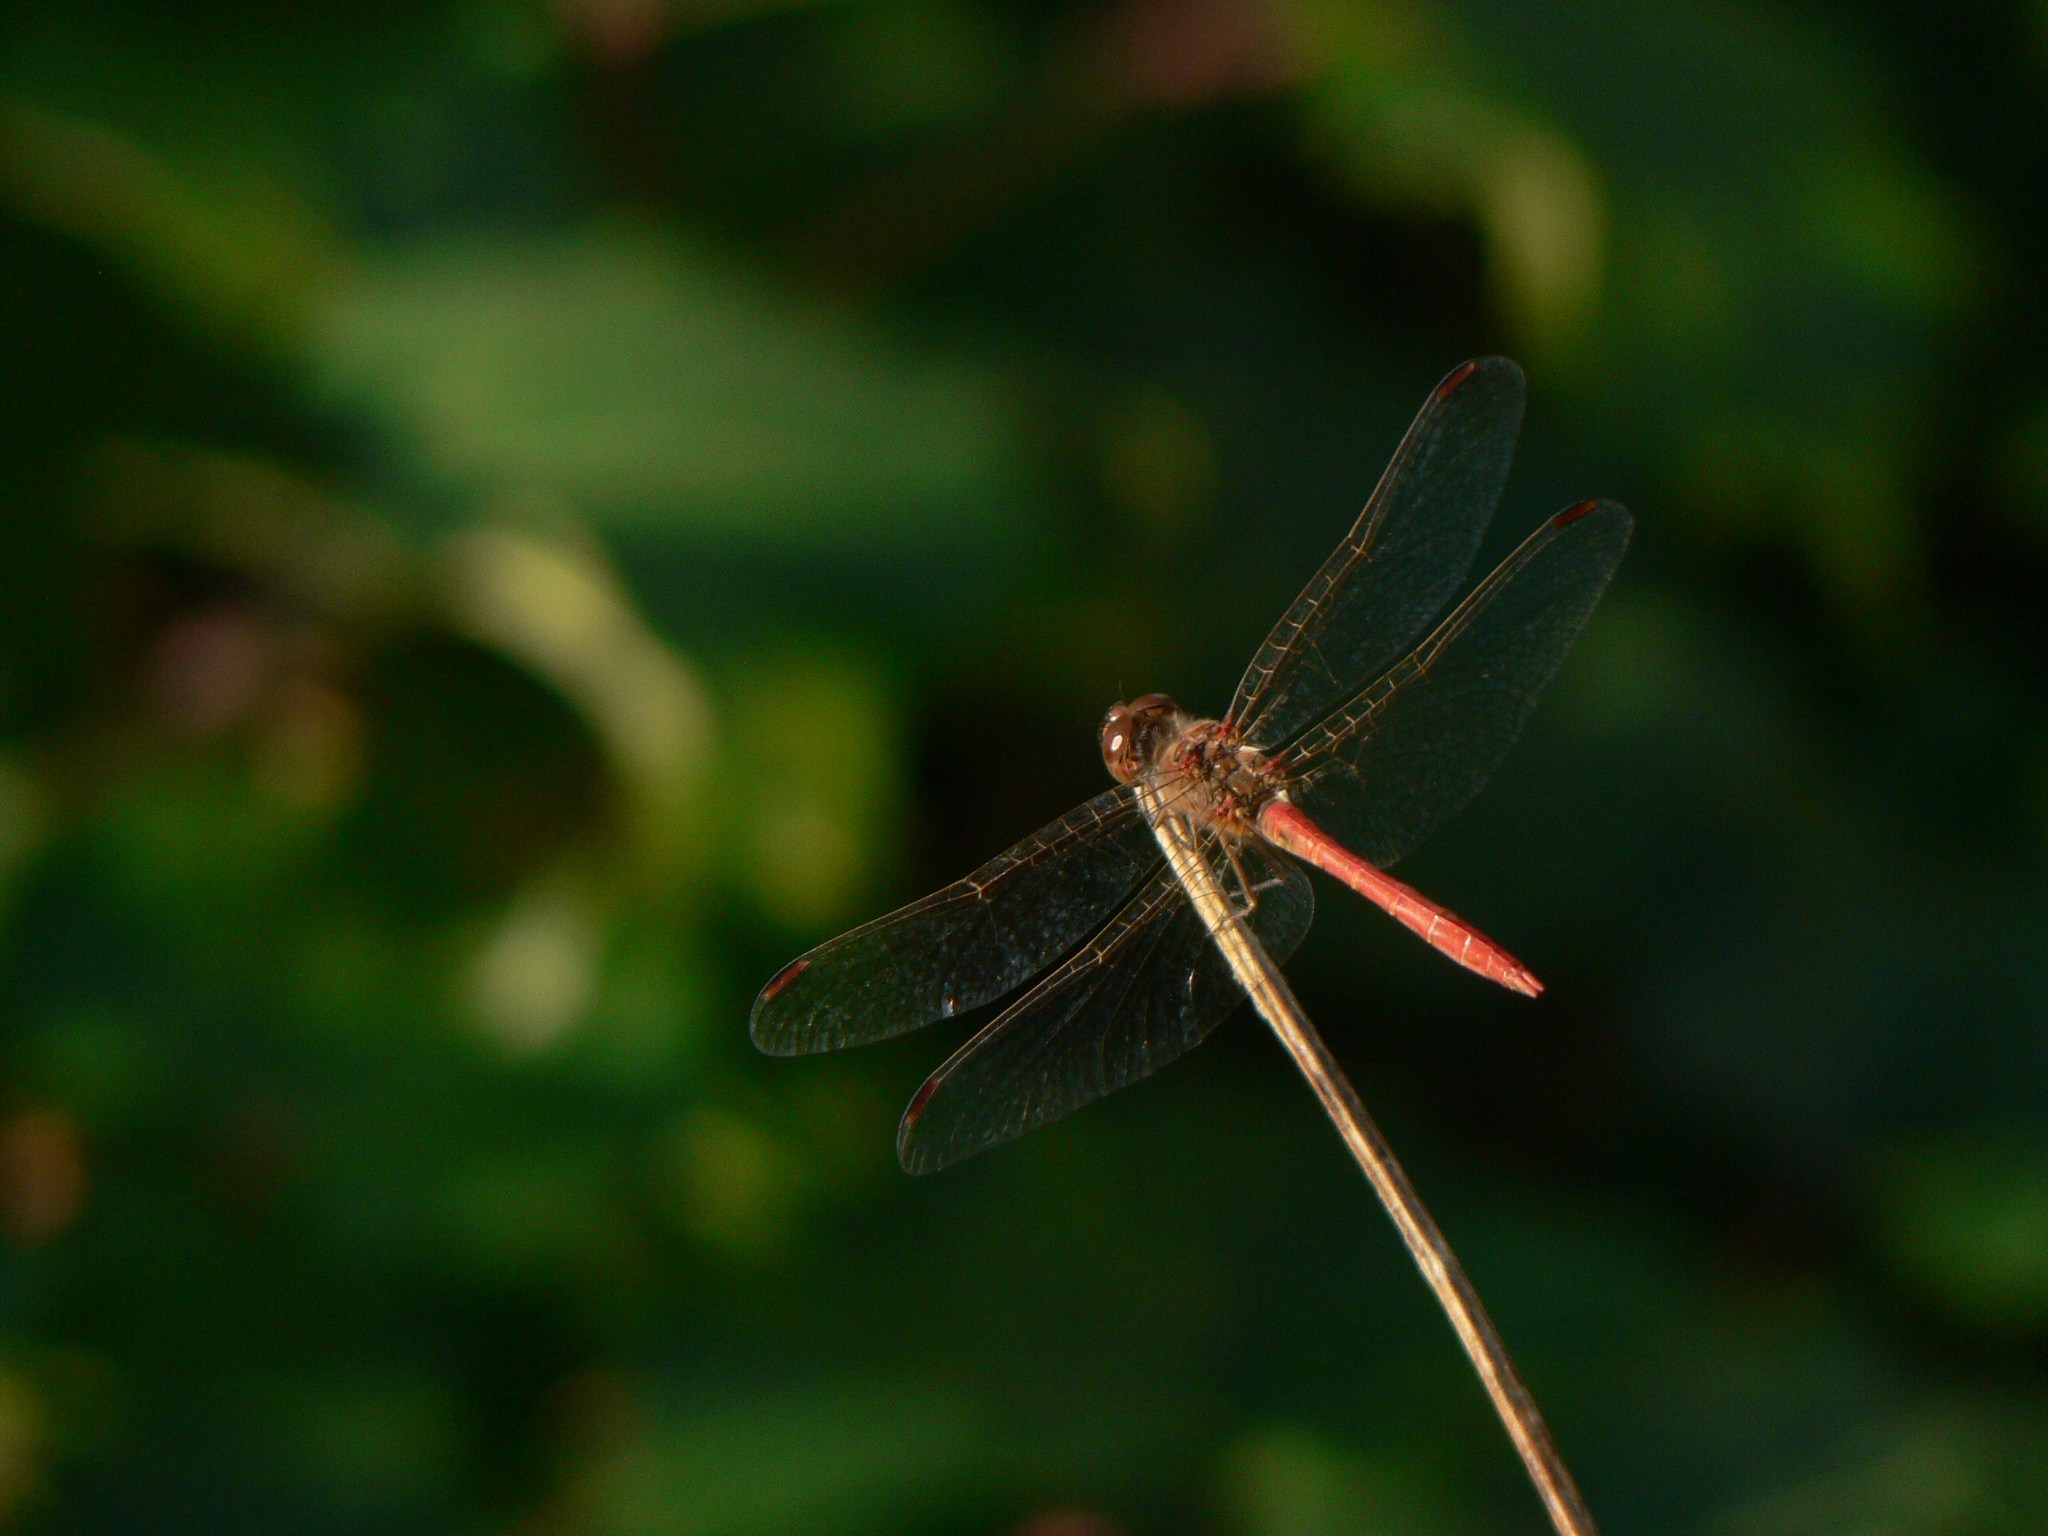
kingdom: Animalia
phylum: Arthropoda
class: Insecta
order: Odonata
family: Libellulidae
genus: Sympetrum
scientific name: Sympetrum meridionale
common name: Southern darter
